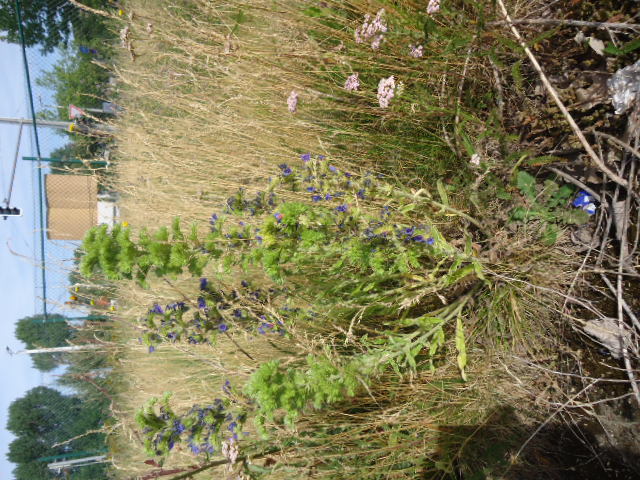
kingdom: Plantae
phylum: Tracheophyta
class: Magnoliopsida
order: Boraginales
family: Boraginaceae
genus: Echium
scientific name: Echium vulgare
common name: Common viper's bugloss
